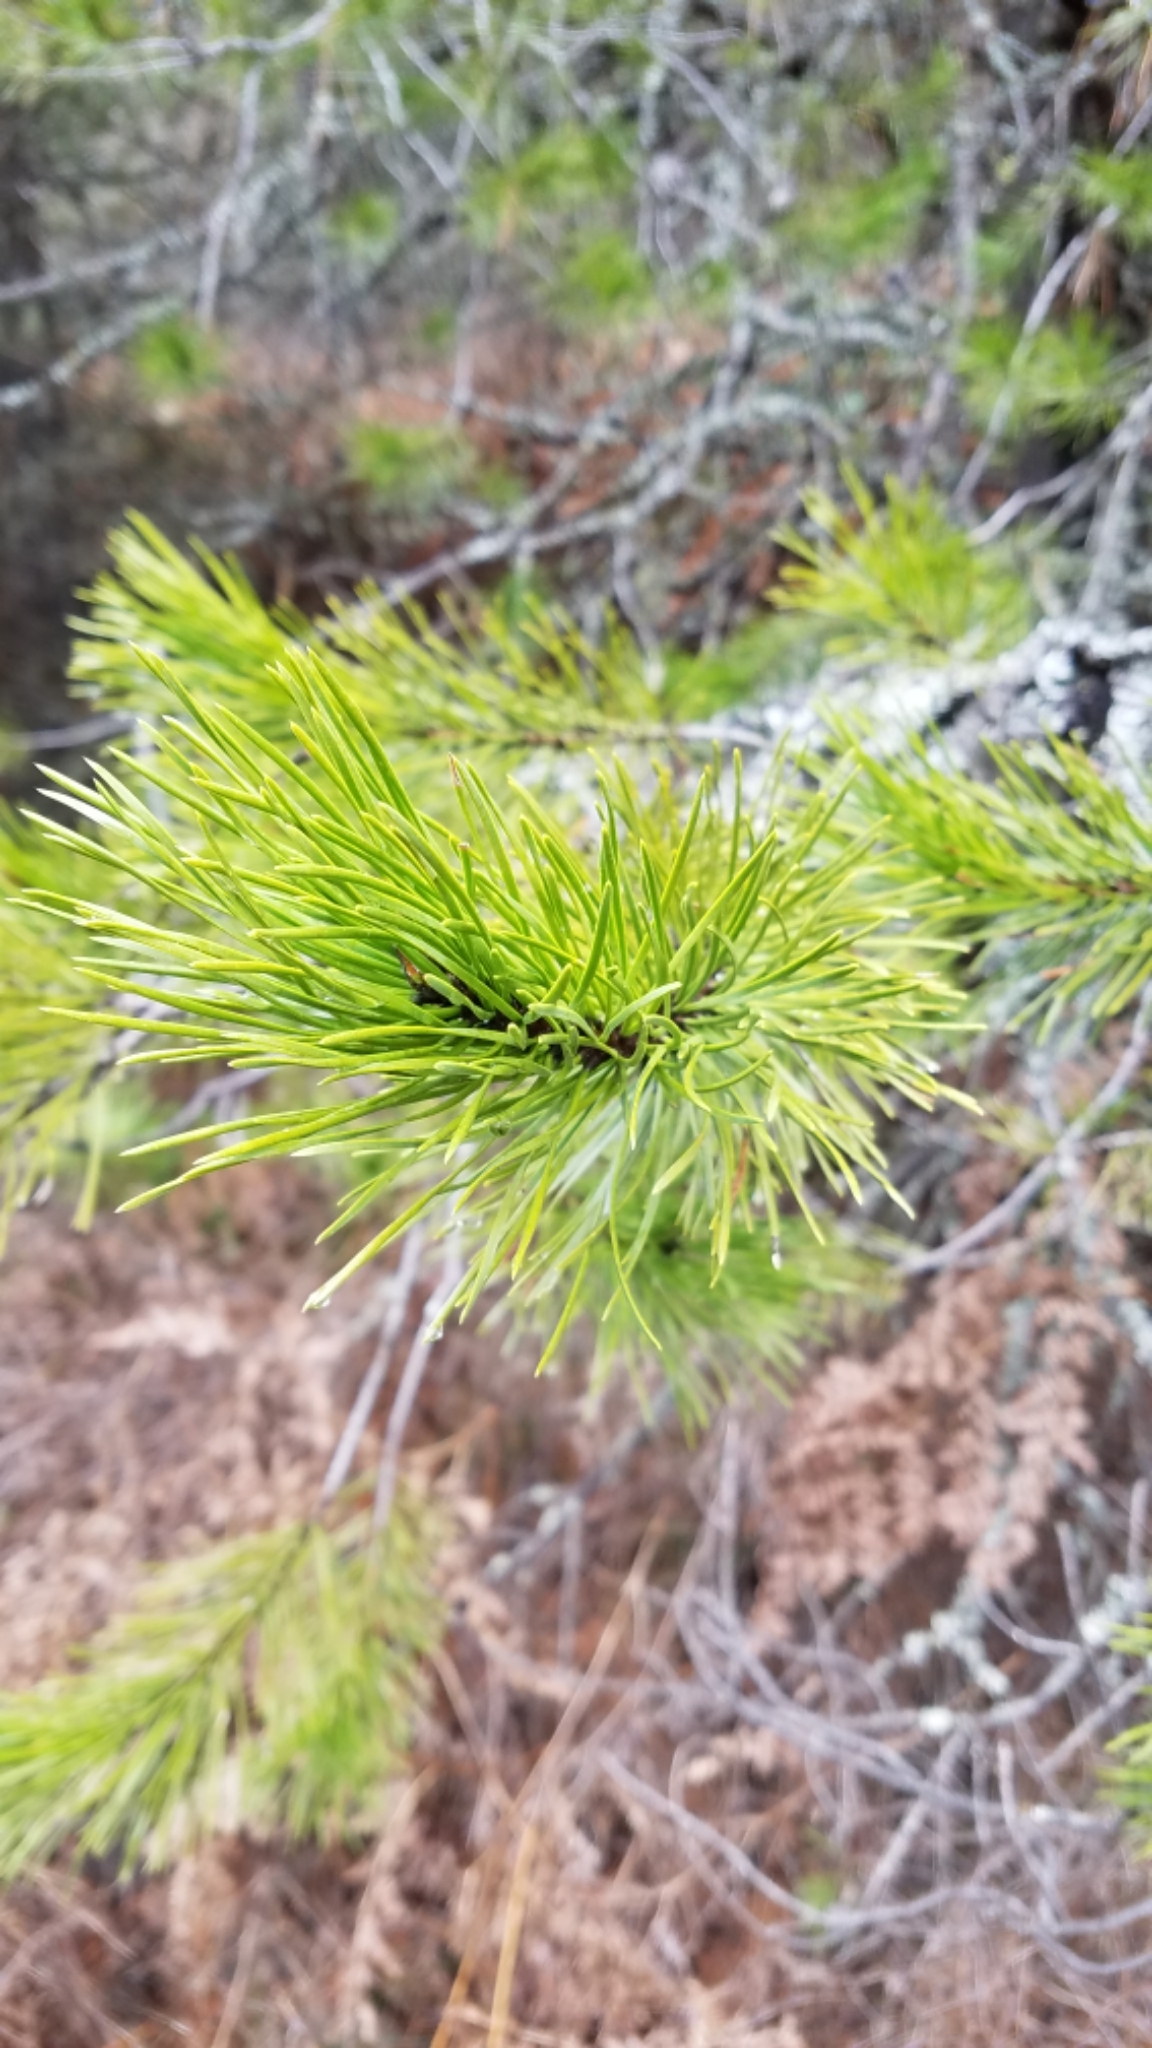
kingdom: Plantae
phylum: Tracheophyta
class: Pinopsida
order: Pinales
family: Pinaceae
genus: Pinus
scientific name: Pinus contorta
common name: Lodgepole pine
